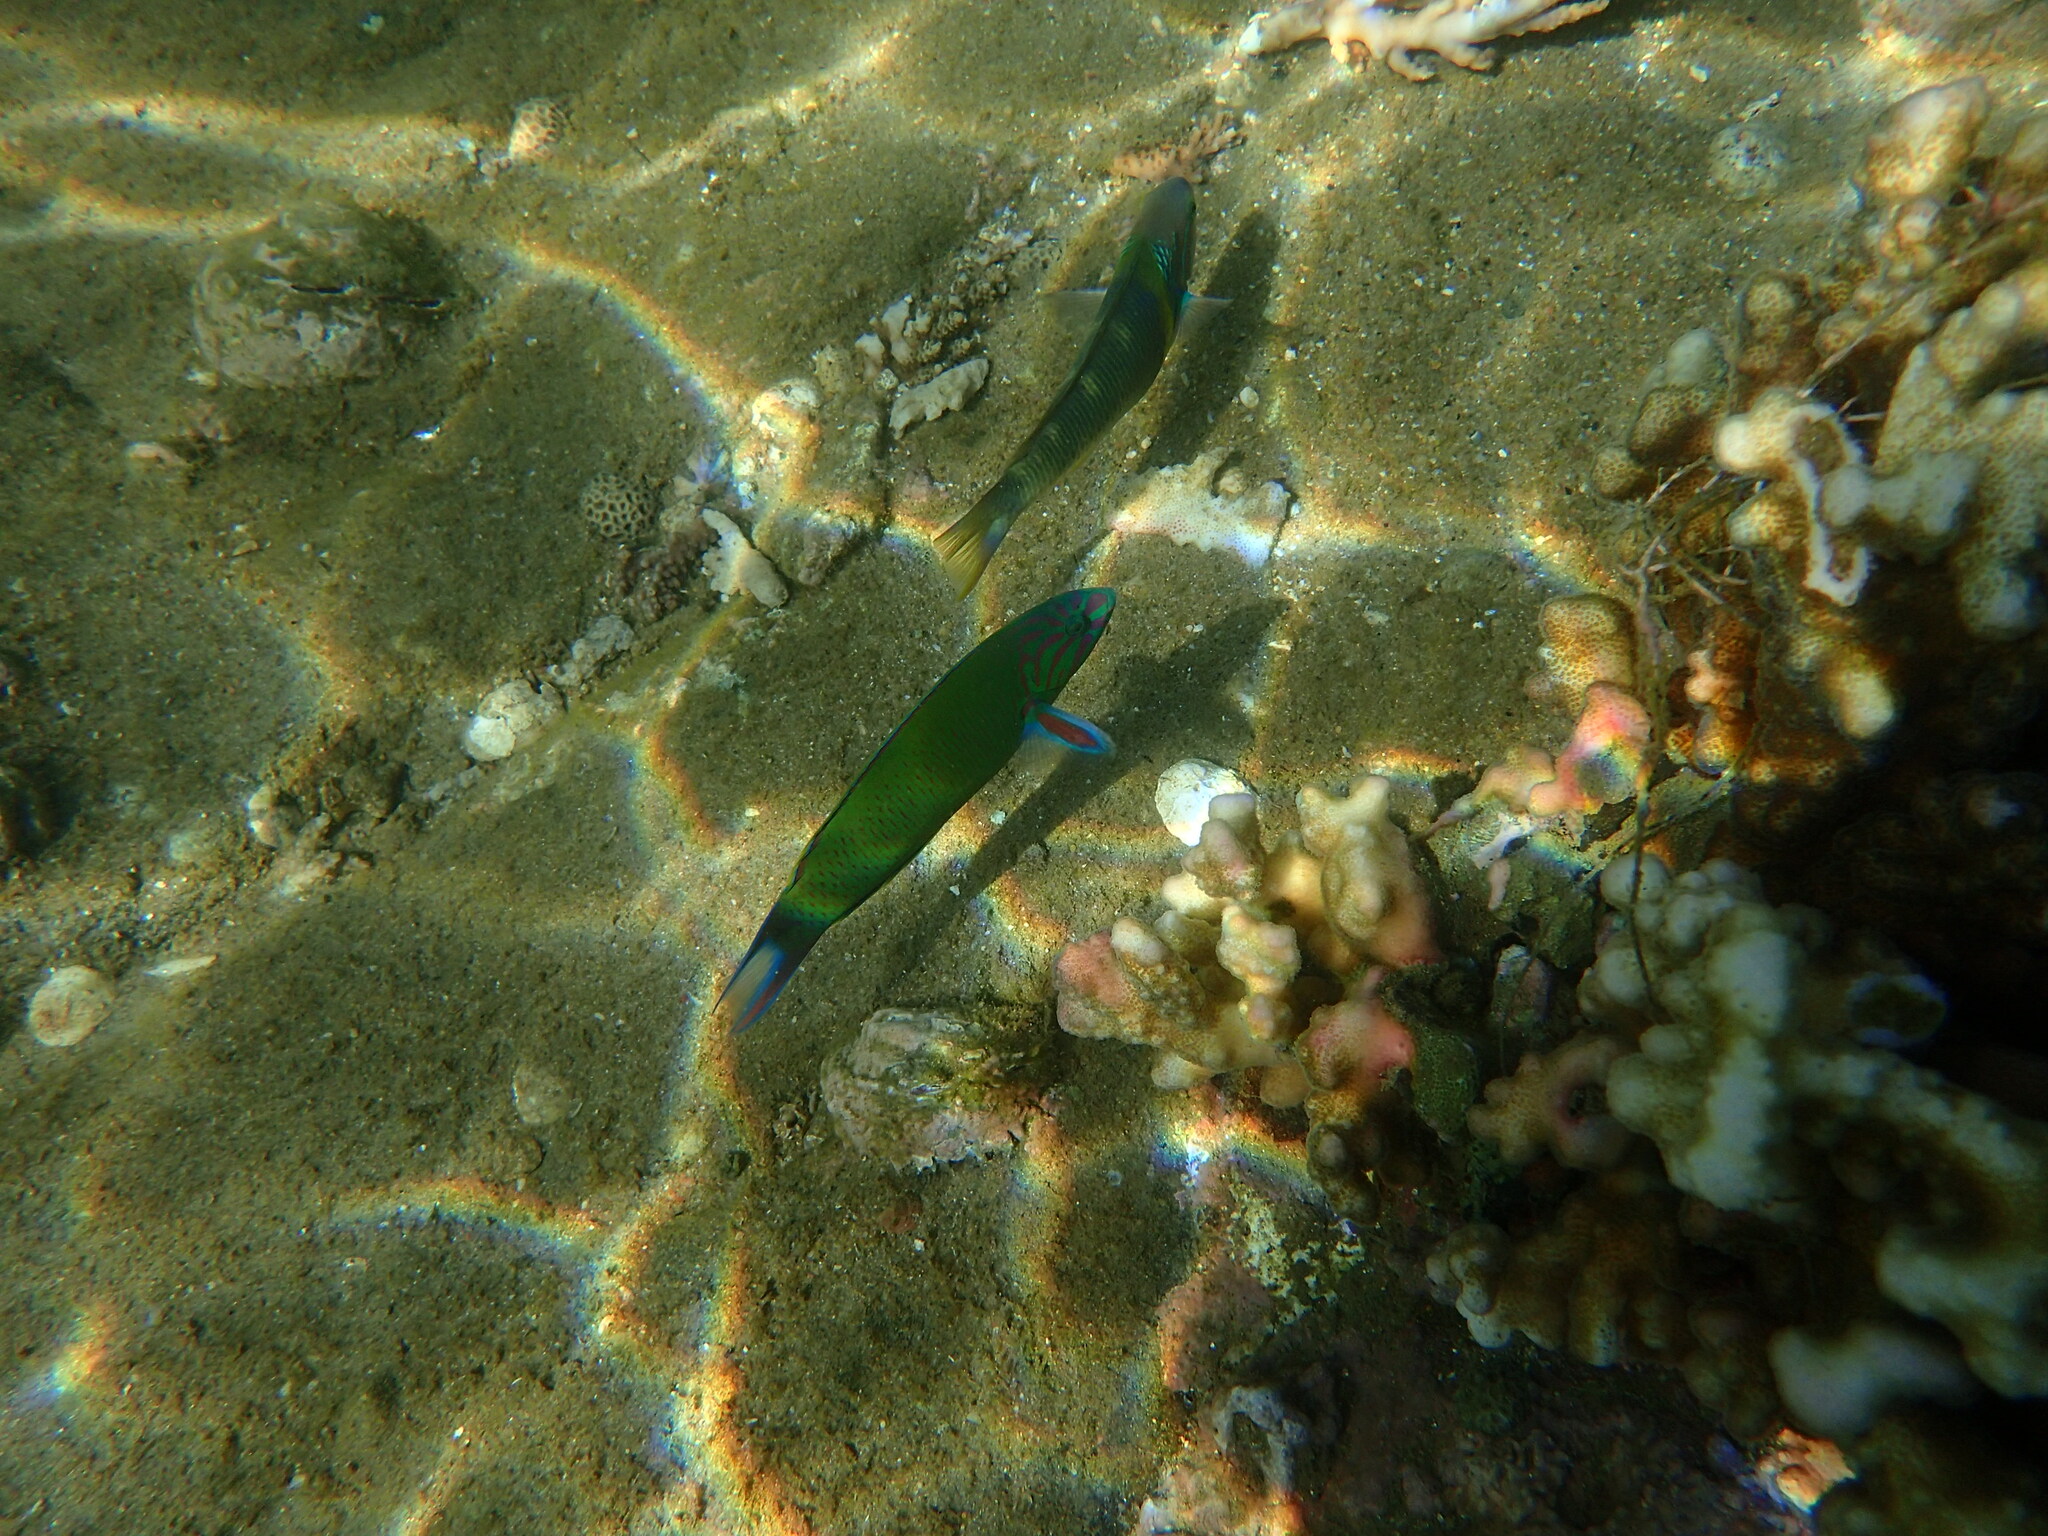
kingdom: Animalia
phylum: Chordata
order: Perciformes
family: Labridae
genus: Thalassoma
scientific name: Thalassoma lunare
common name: Blue wrasse
